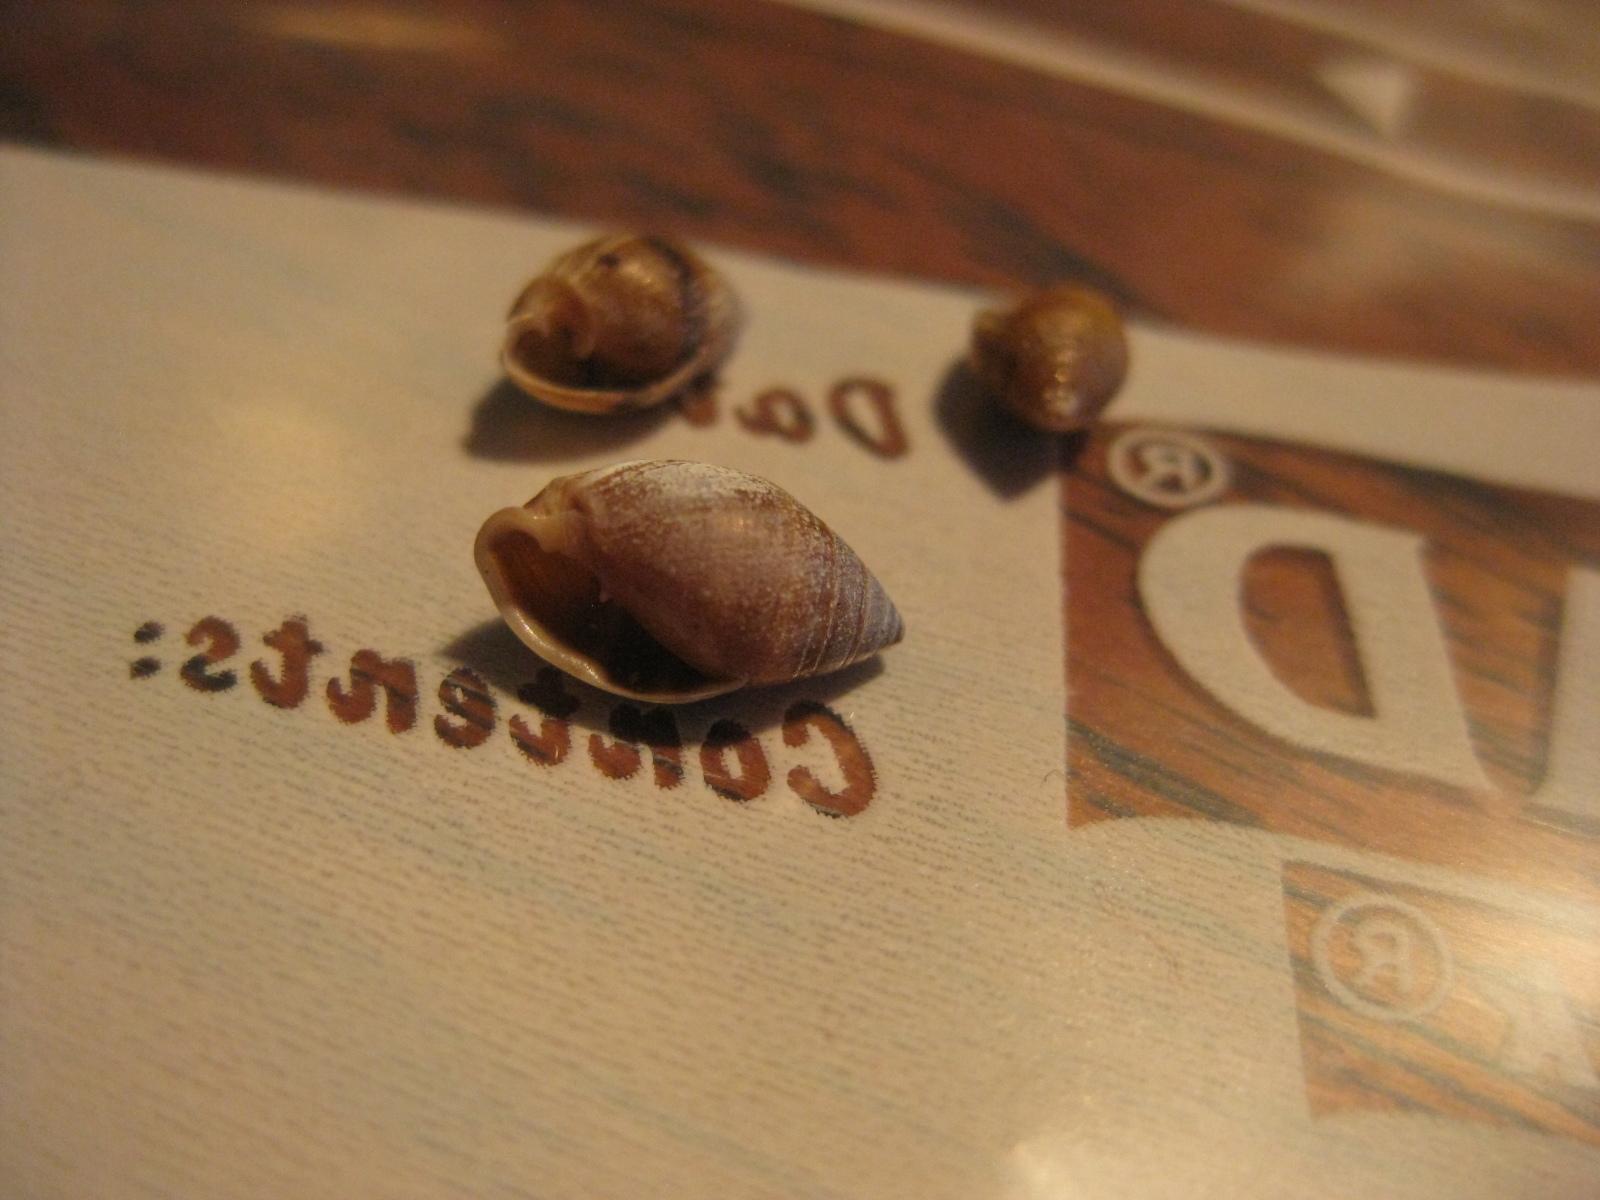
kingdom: Animalia
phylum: Mollusca
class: Gastropoda
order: Ellobiida
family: Ellobiidae
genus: Pleuroloba
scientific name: Pleuroloba costellaris
